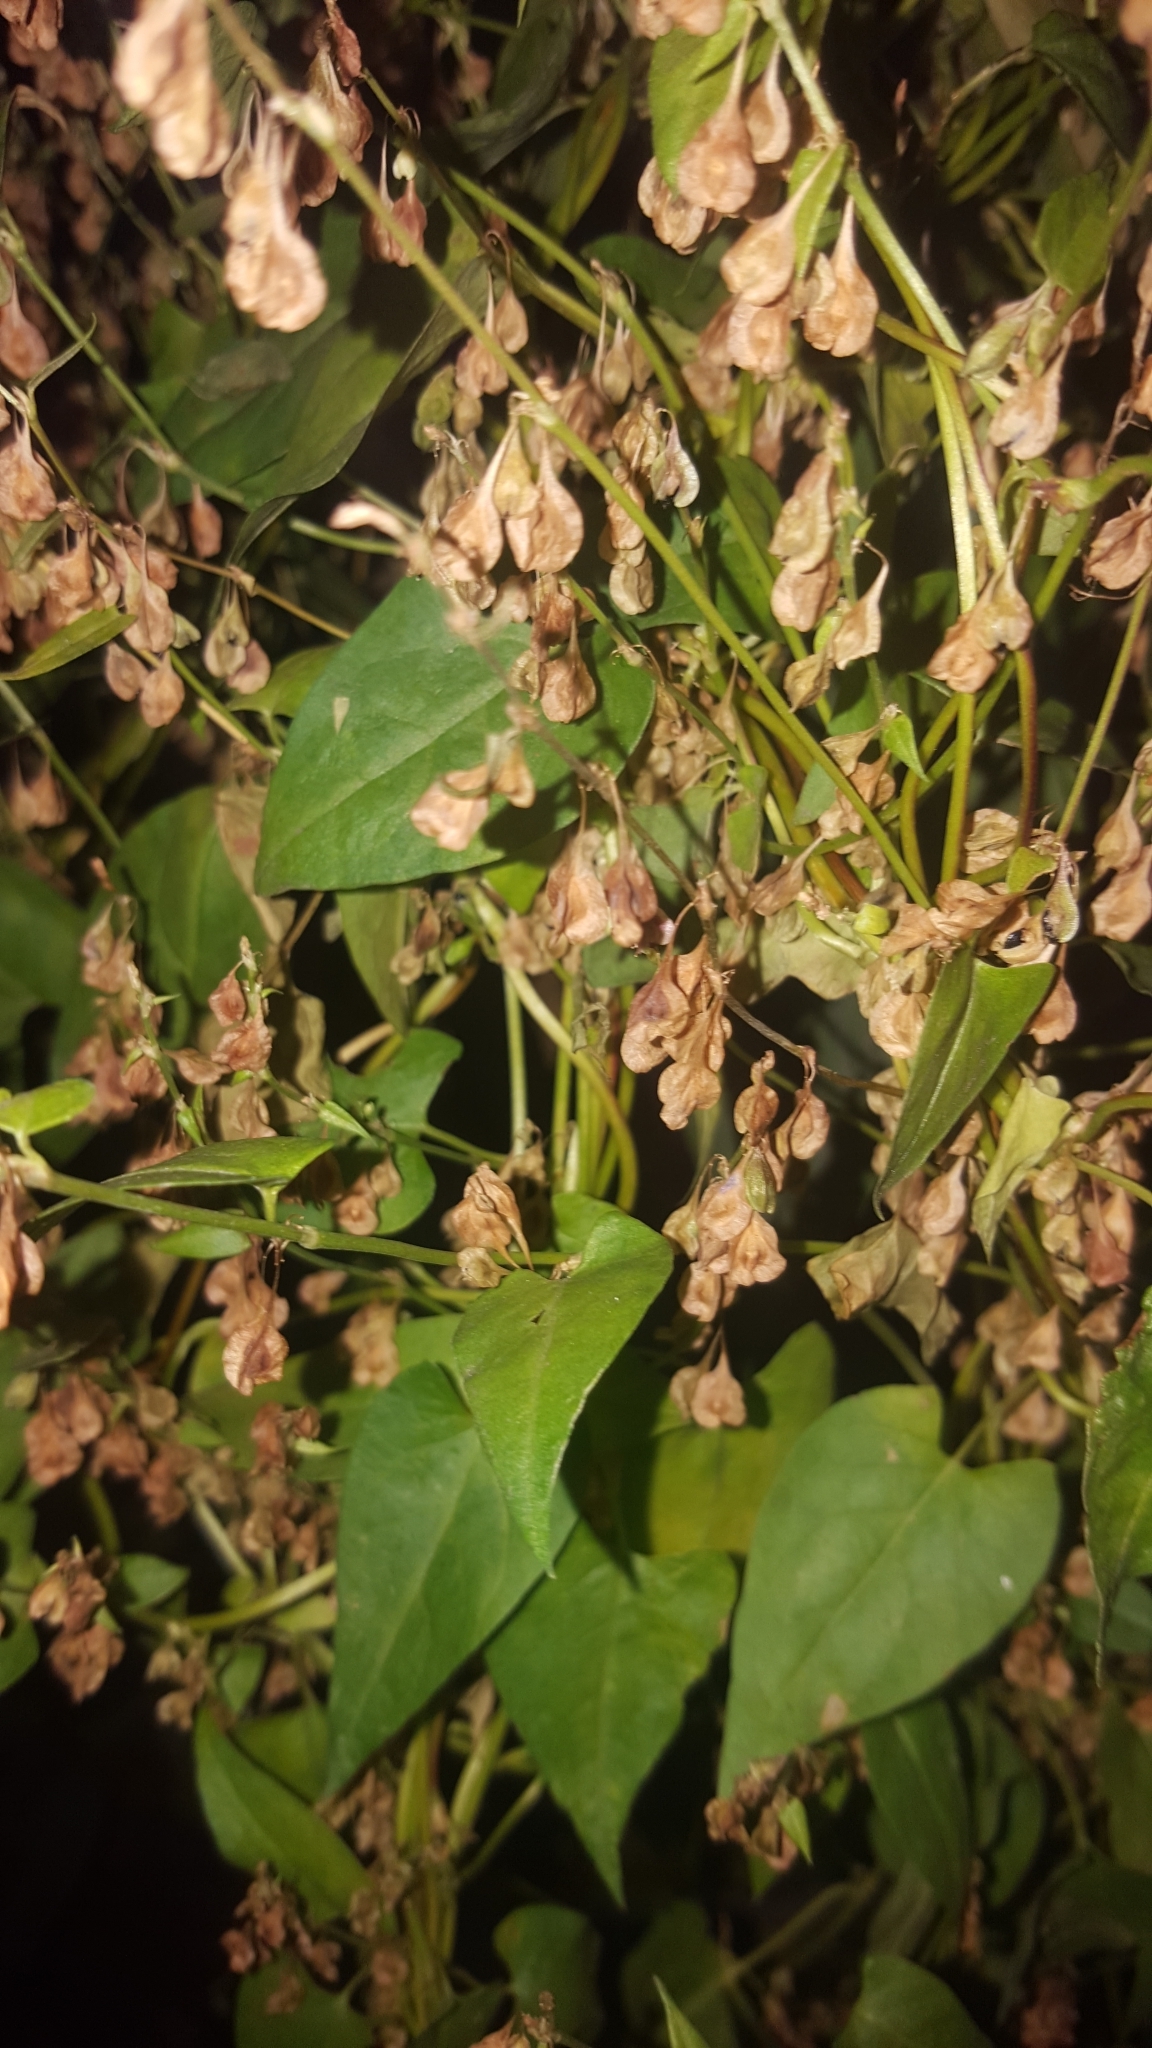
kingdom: Plantae
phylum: Tracheophyta
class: Magnoliopsida
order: Caryophyllales
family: Polygonaceae
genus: Fallopia
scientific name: Fallopia dumetorum
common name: Copse-bindweed
